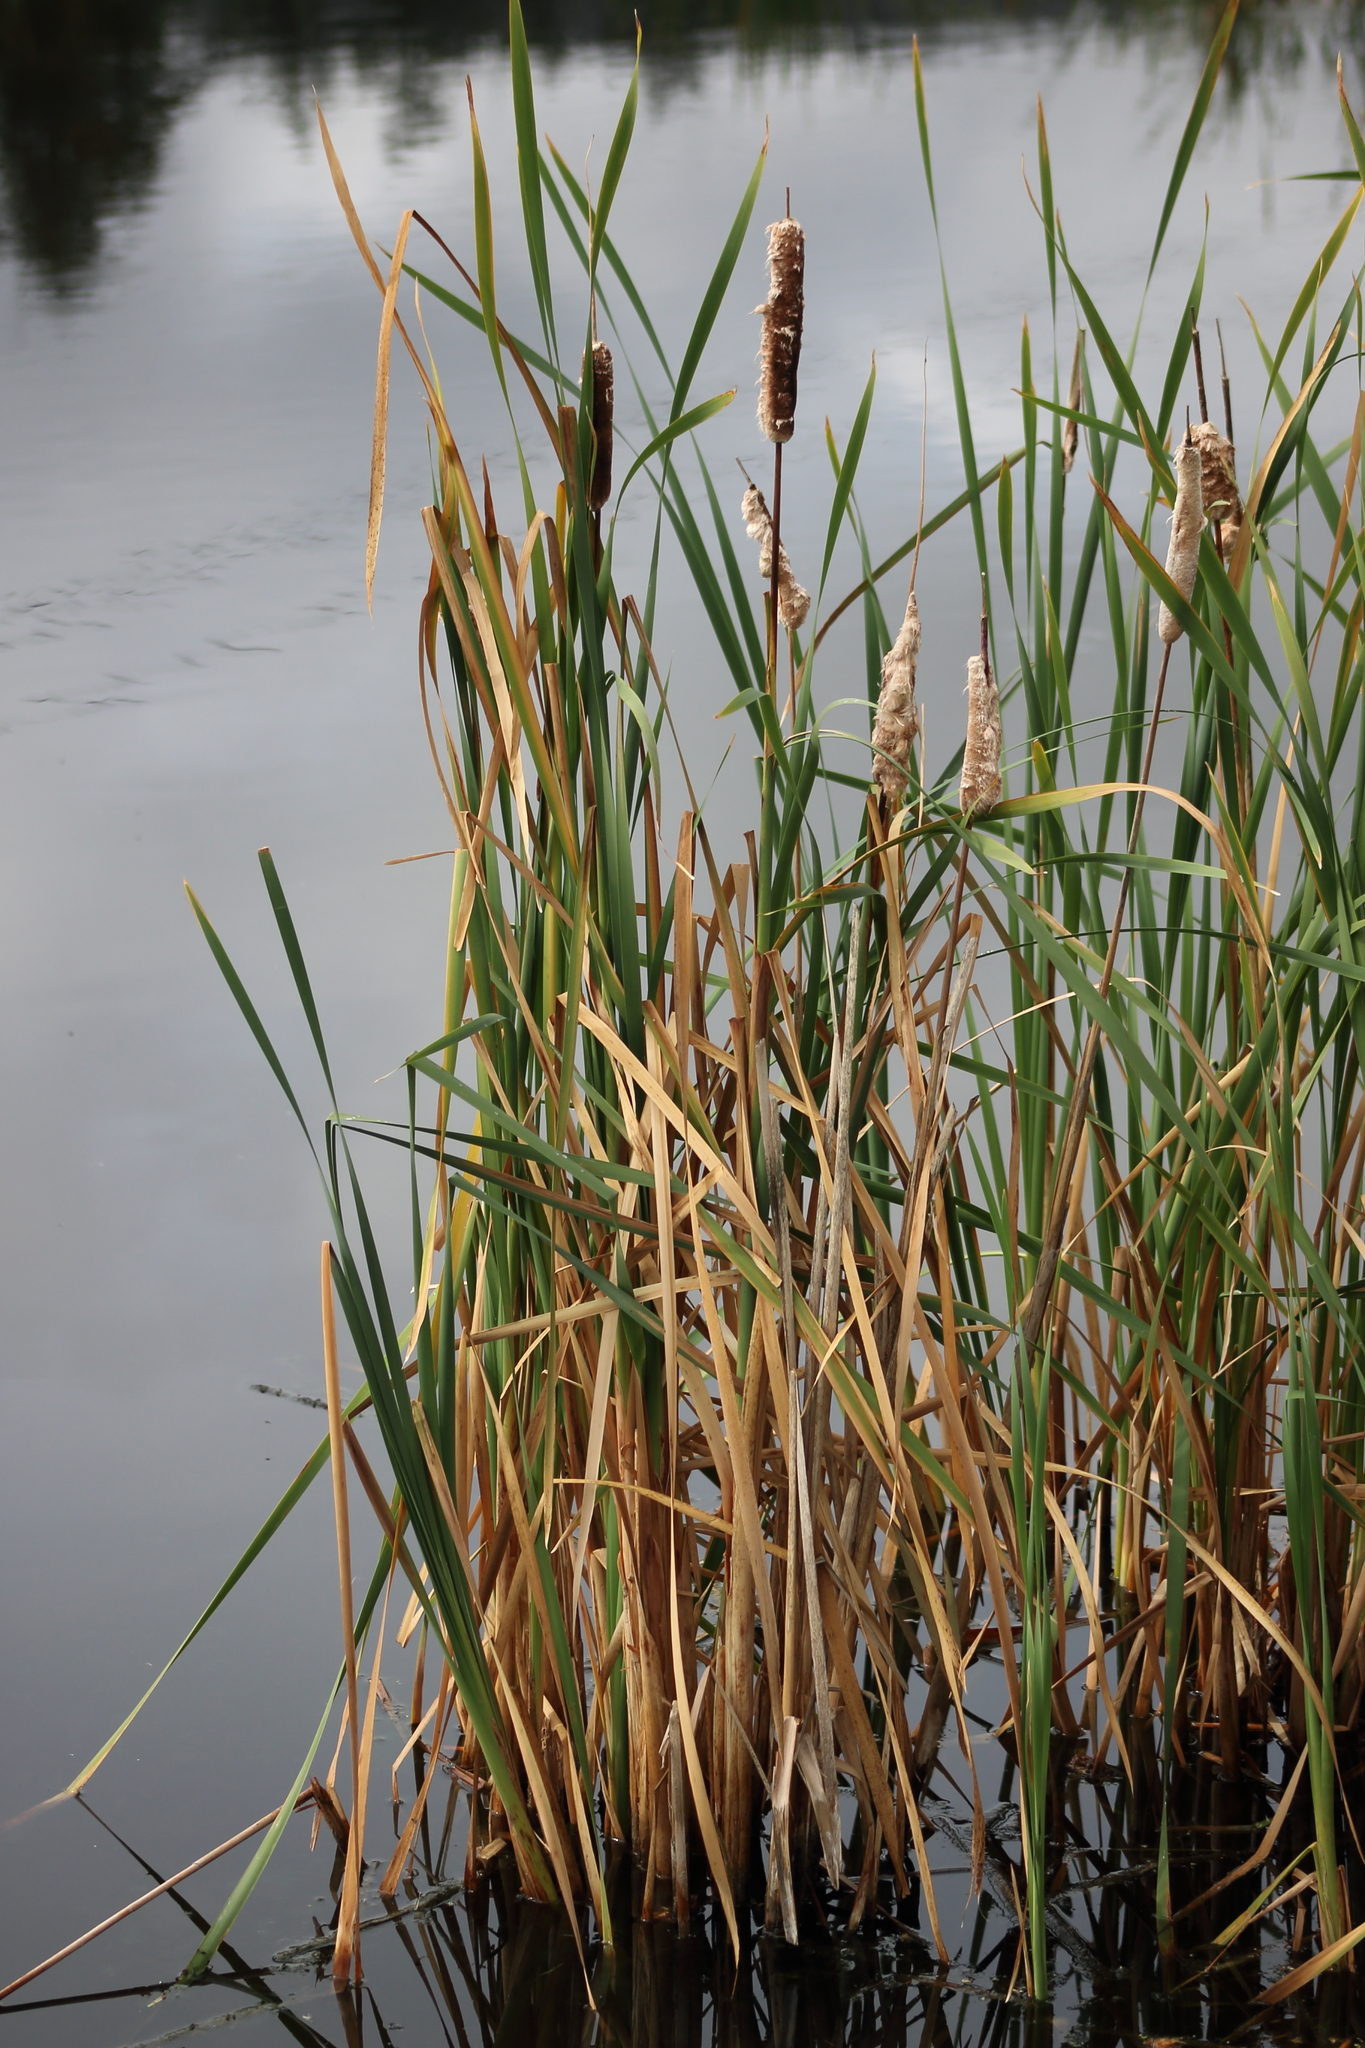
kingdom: Plantae
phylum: Tracheophyta
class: Liliopsida
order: Poales
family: Typhaceae
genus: Typha
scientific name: Typha latifolia
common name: Broadleaf cattail
